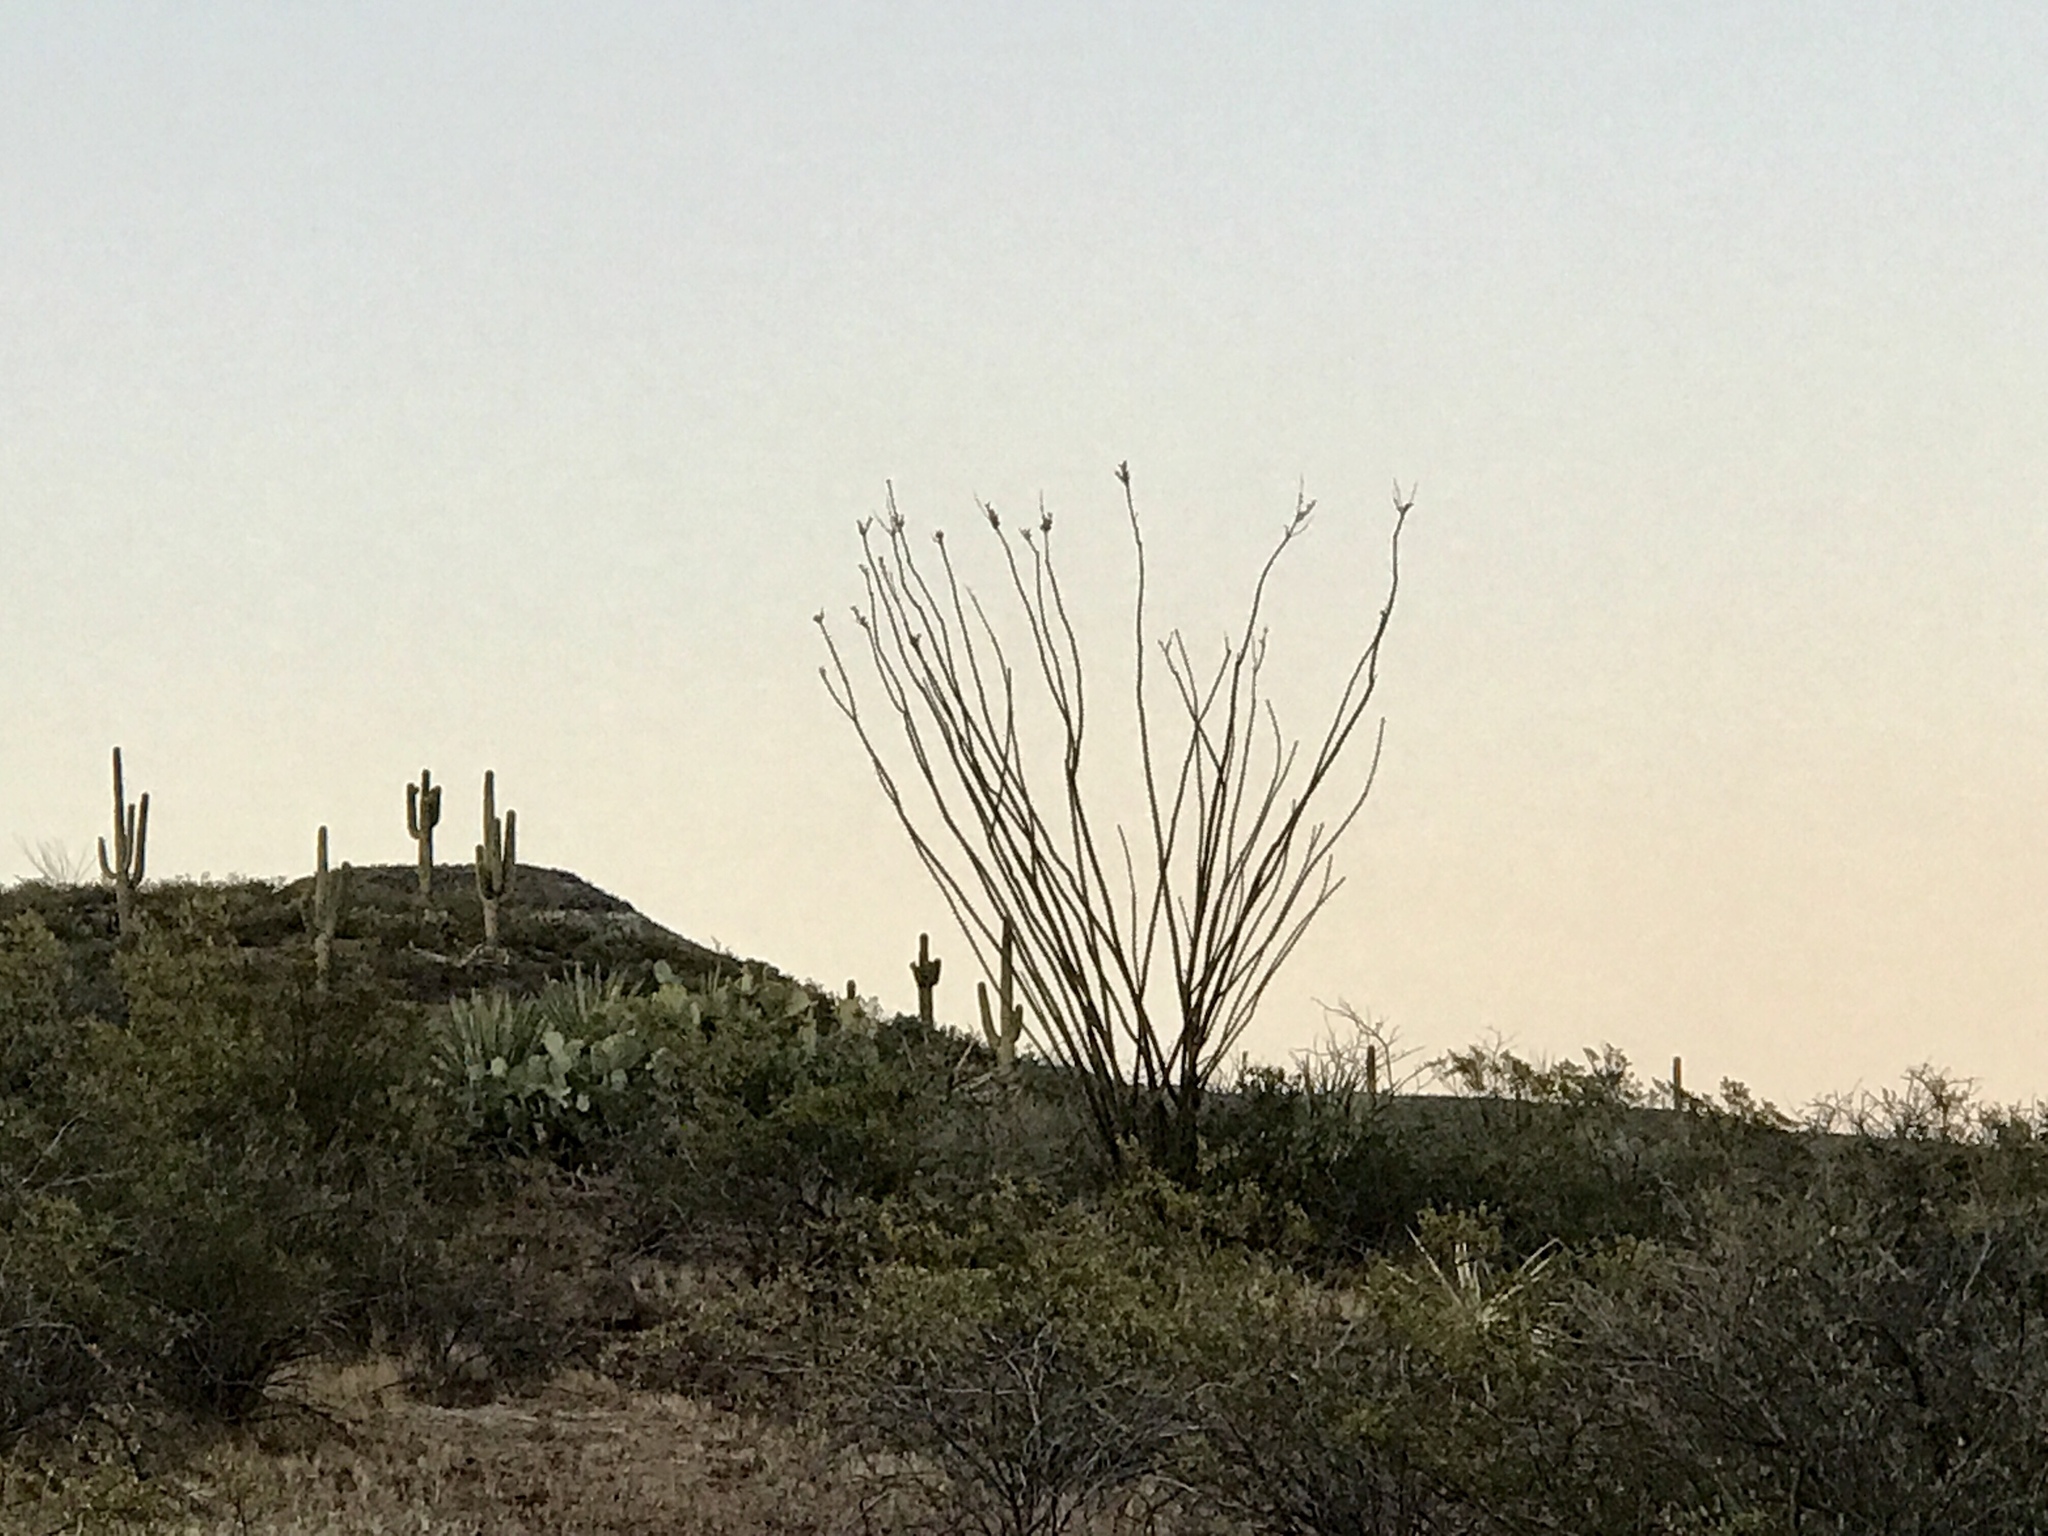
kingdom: Plantae
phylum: Tracheophyta
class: Magnoliopsida
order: Ericales
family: Fouquieriaceae
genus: Fouquieria
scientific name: Fouquieria splendens
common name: Vine-cactus
